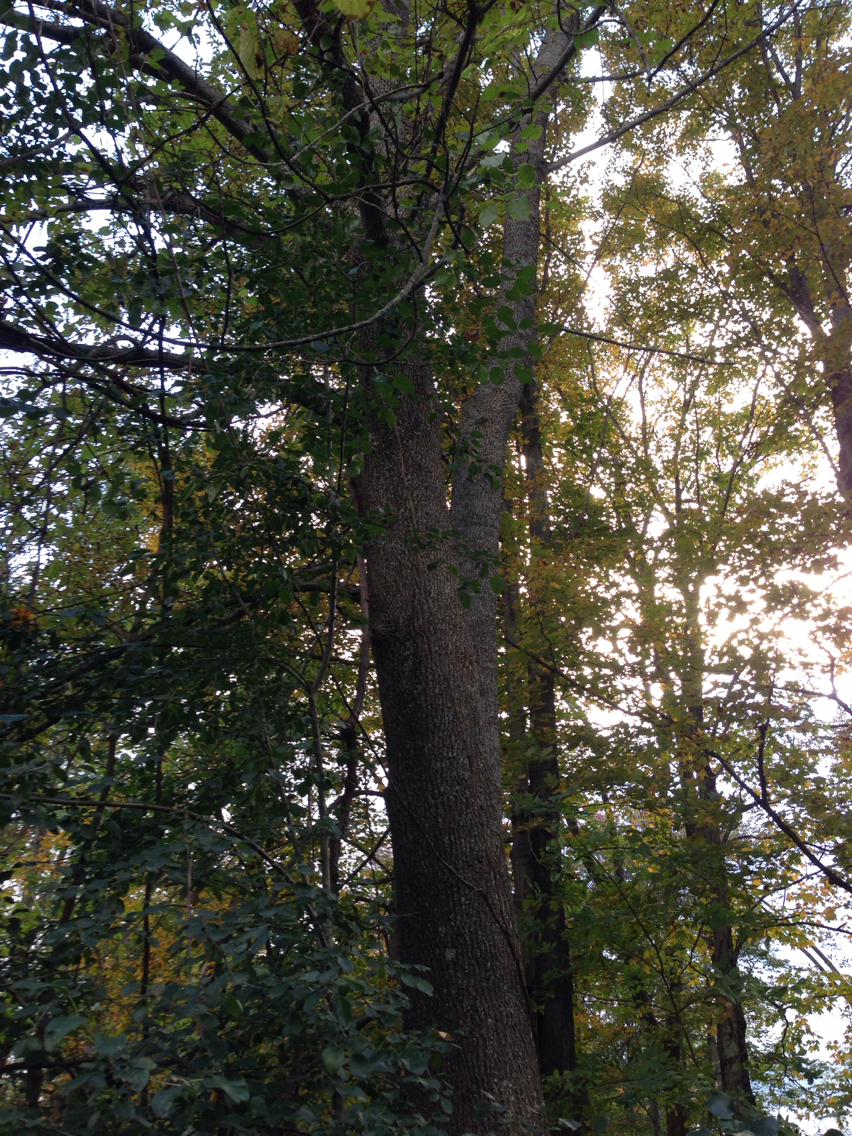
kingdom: Plantae
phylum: Tracheophyta
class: Magnoliopsida
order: Lamiales
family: Oleaceae
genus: Fraxinus
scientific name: Fraxinus americana
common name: White ash
